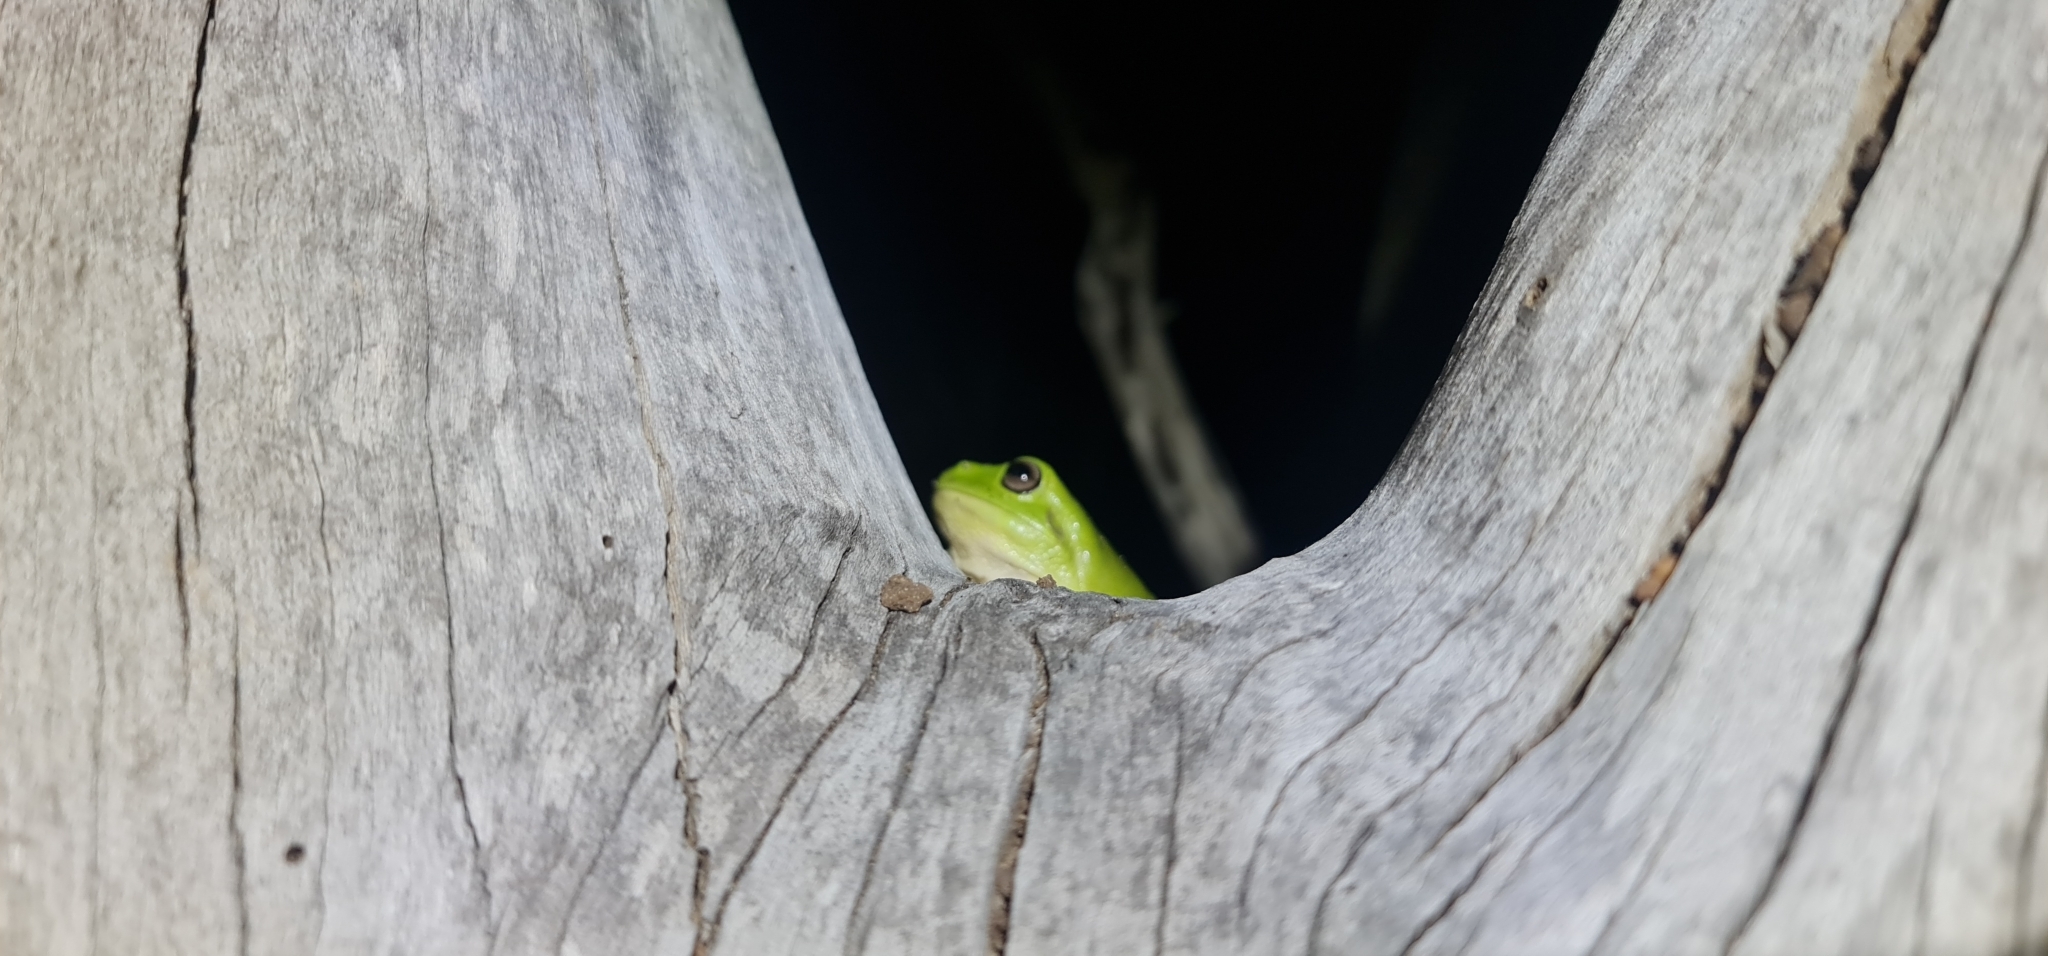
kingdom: Animalia
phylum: Chordata
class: Amphibia
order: Anura
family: Pelodryadidae
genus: Ranoidea
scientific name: Ranoidea caerulea
